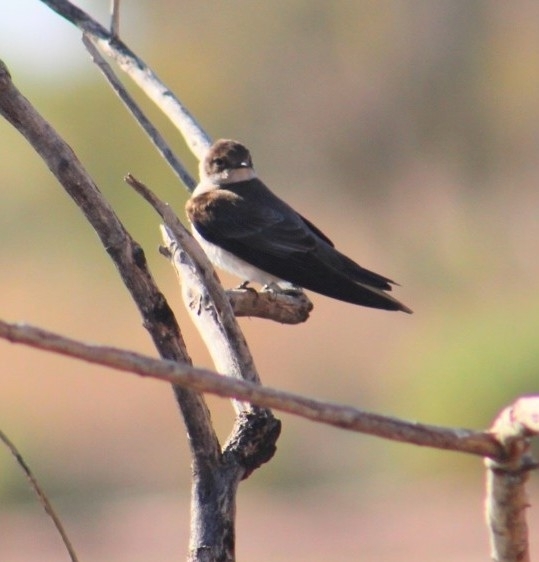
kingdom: Animalia
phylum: Chordata
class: Aves
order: Passeriformes
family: Hirundinidae
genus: Stelgidopteryx
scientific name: Stelgidopteryx serripennis
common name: Northern rough-winged swallow
